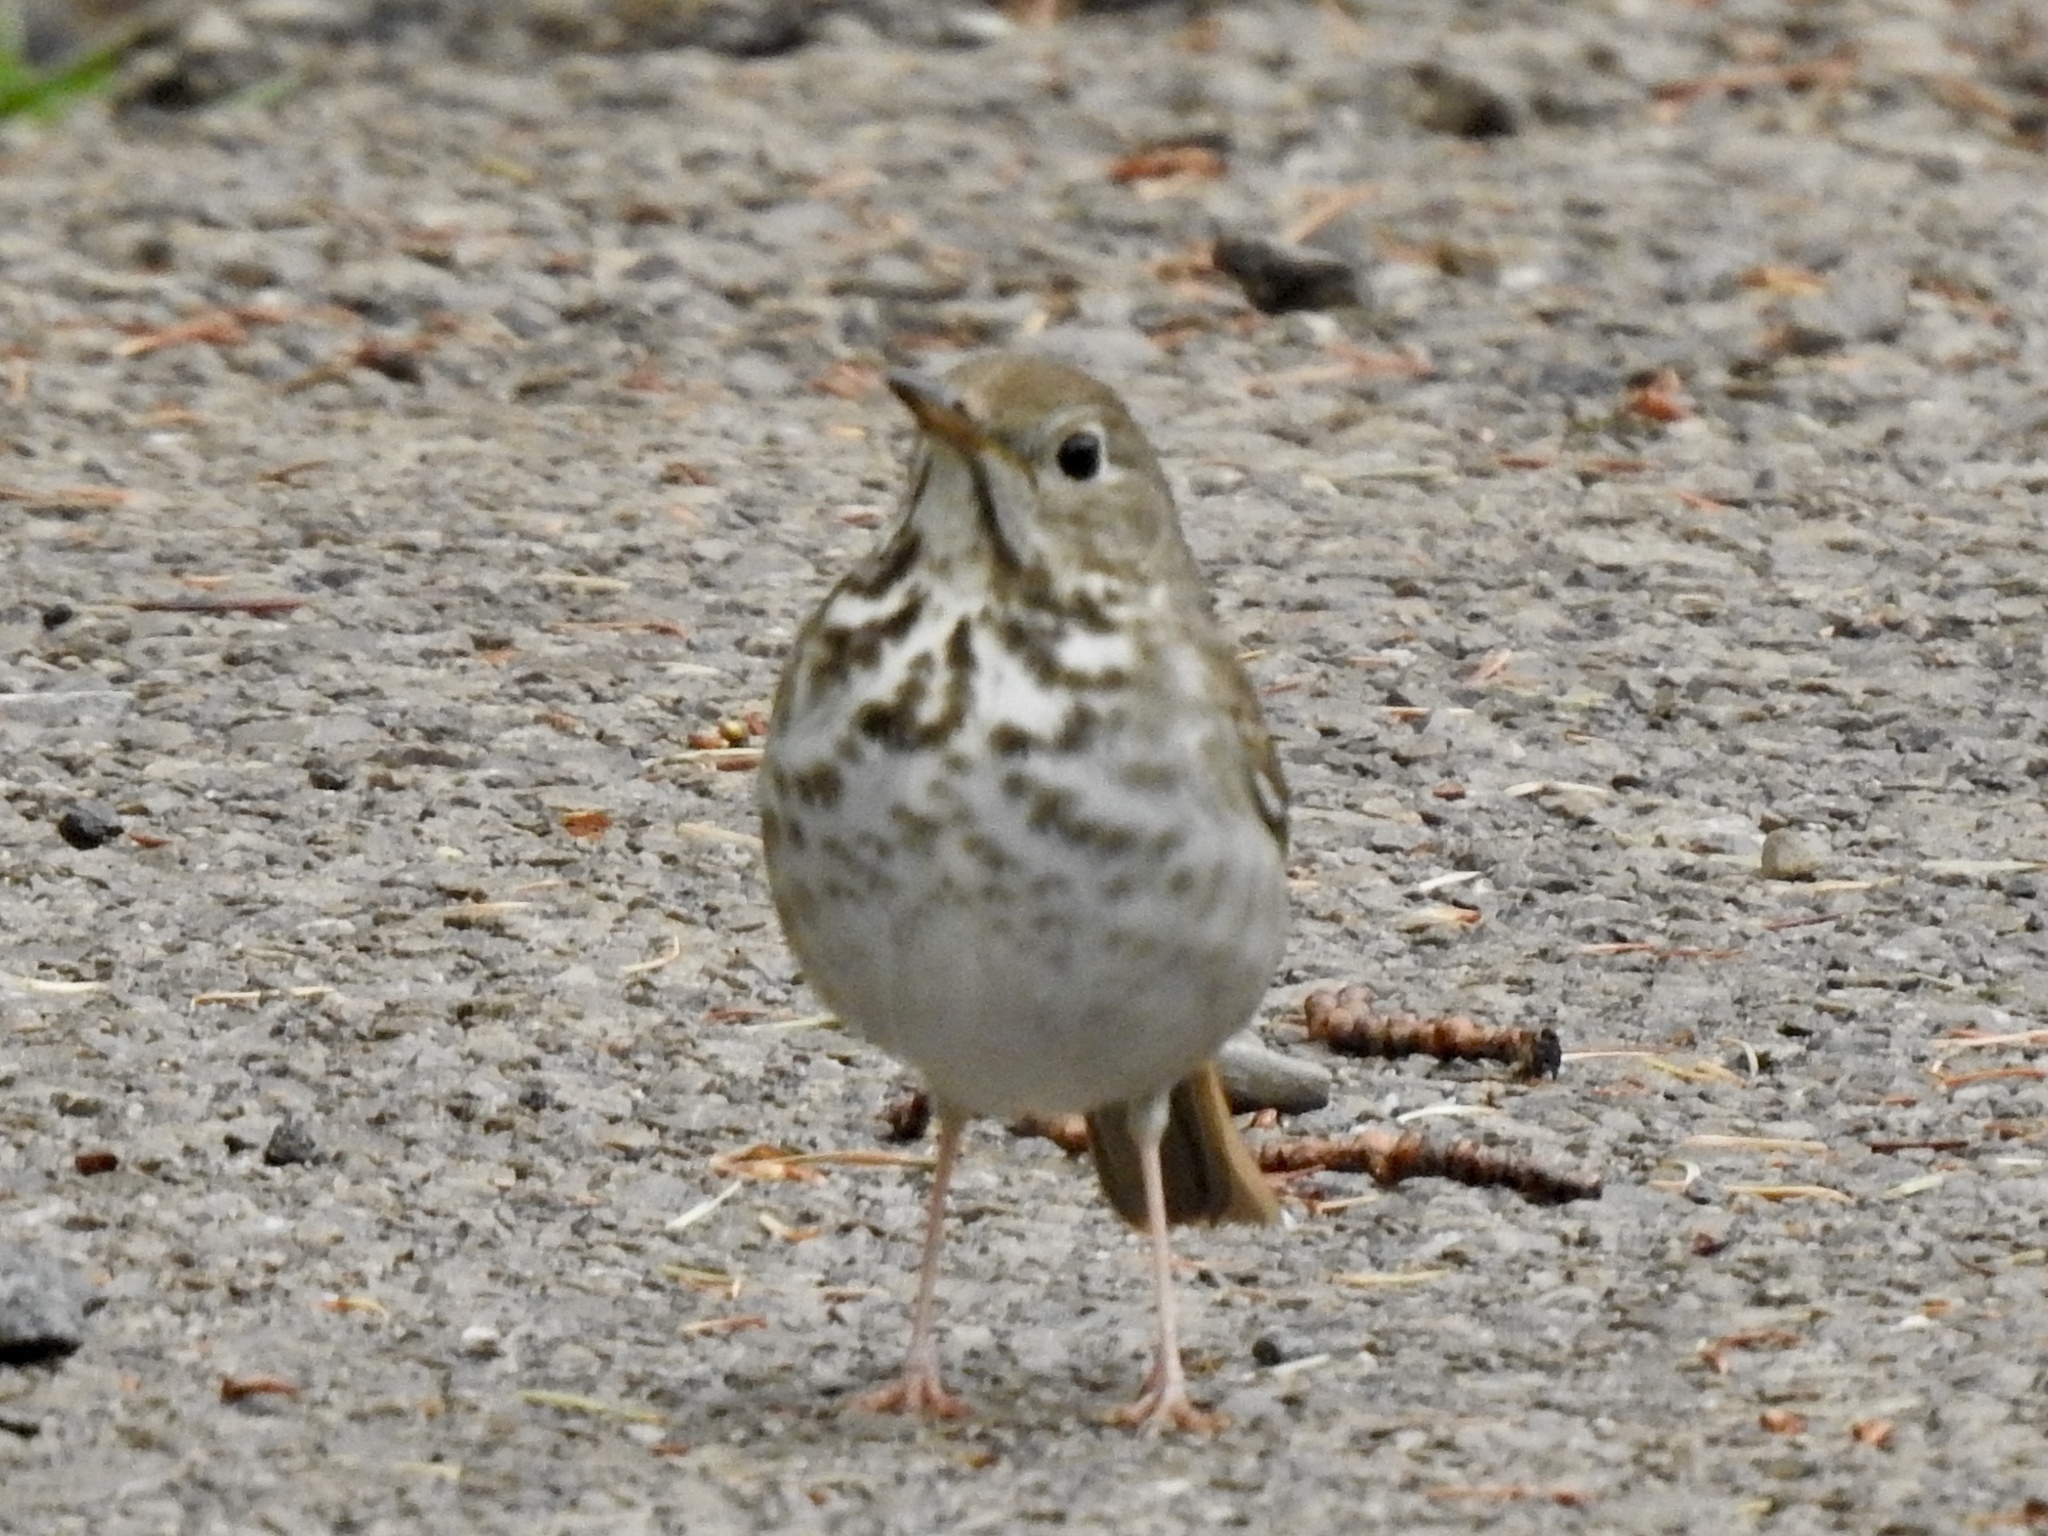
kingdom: Animalia
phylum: Chordata
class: Aves
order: Passeriformes
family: Turdidae
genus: Catharus
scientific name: Catharus guttatus
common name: Hermit thrush
